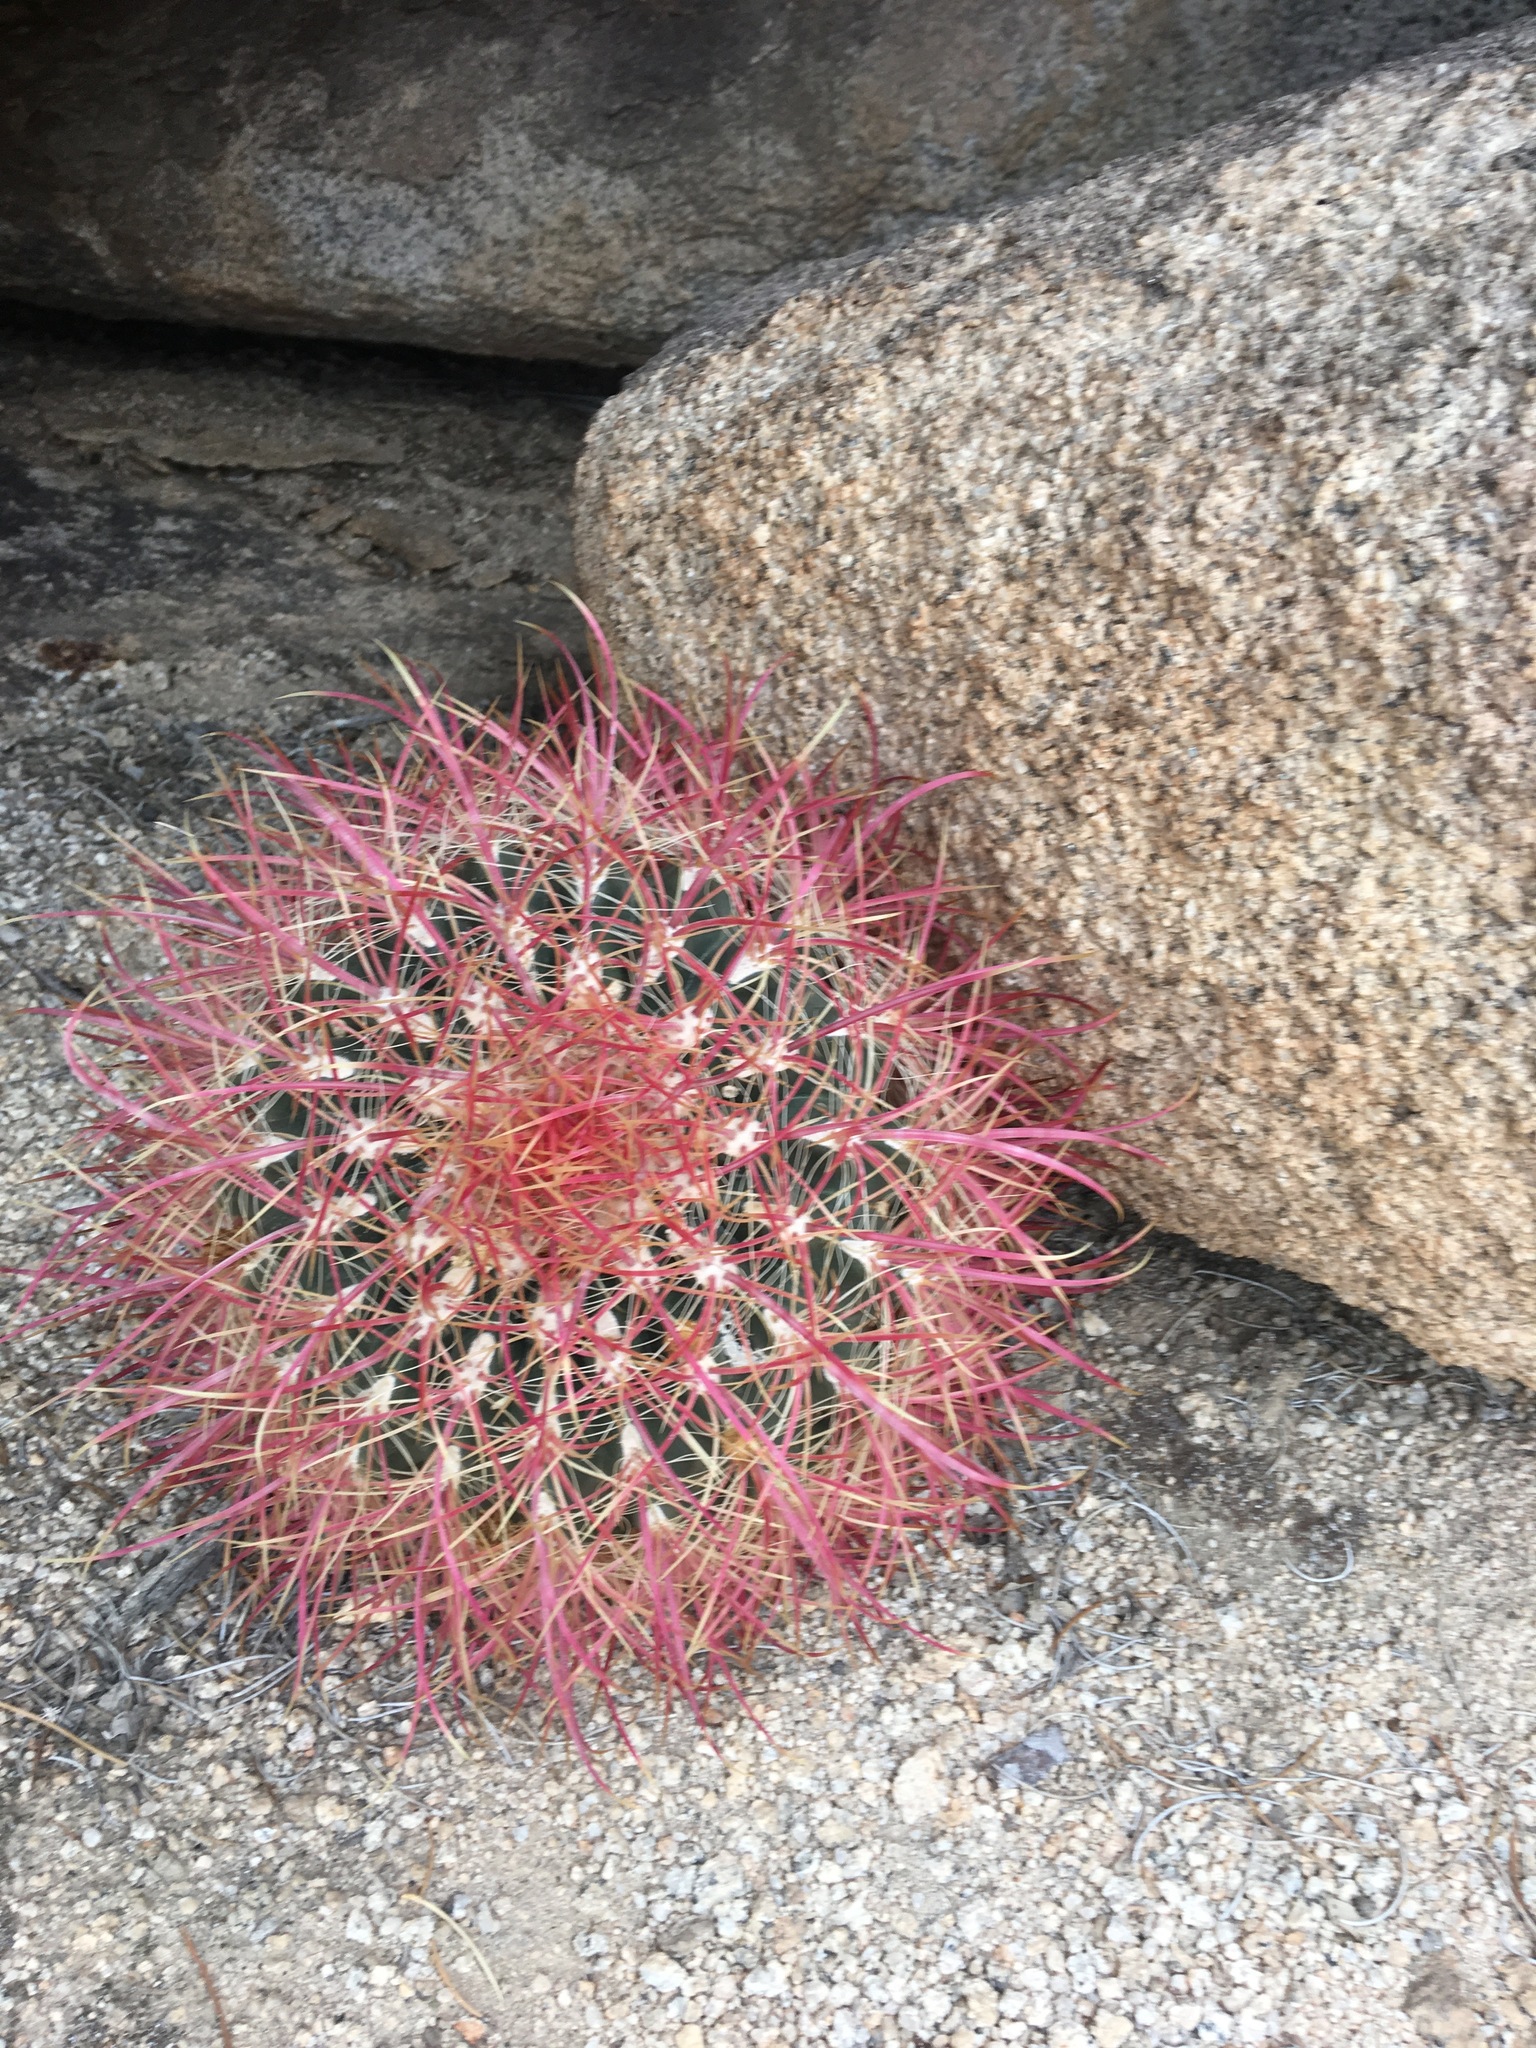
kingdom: Plantae
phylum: Tracheophyta
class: Magnoliopsida
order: Caryophyllales
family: Cactaceae
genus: Ferocactus
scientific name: Ferocactus cylindraceus
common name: California barrel cactus
